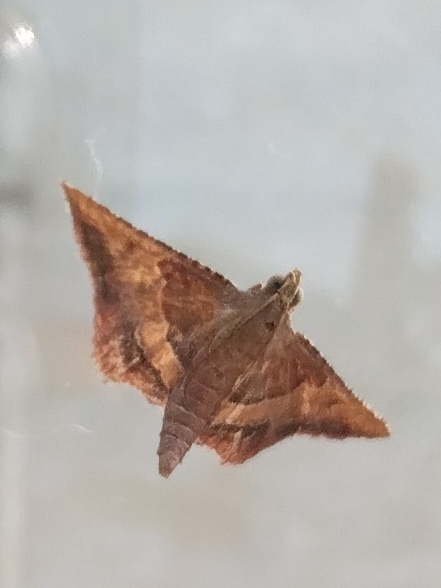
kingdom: Animalia
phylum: Arthropoda
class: Insecta
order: Lepidoptera
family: Pyralidae
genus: Endotricha
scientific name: Endotricha flammealis
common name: Rosy tabby
